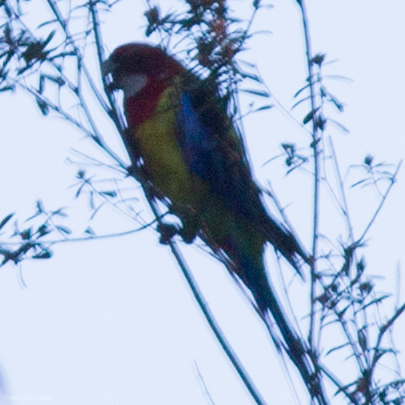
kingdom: Animalia
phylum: Chordata
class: Aves
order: Psittaciformes
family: Psittacidae
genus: Platycercus
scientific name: Platycercus eximius
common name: Eastern rosella
